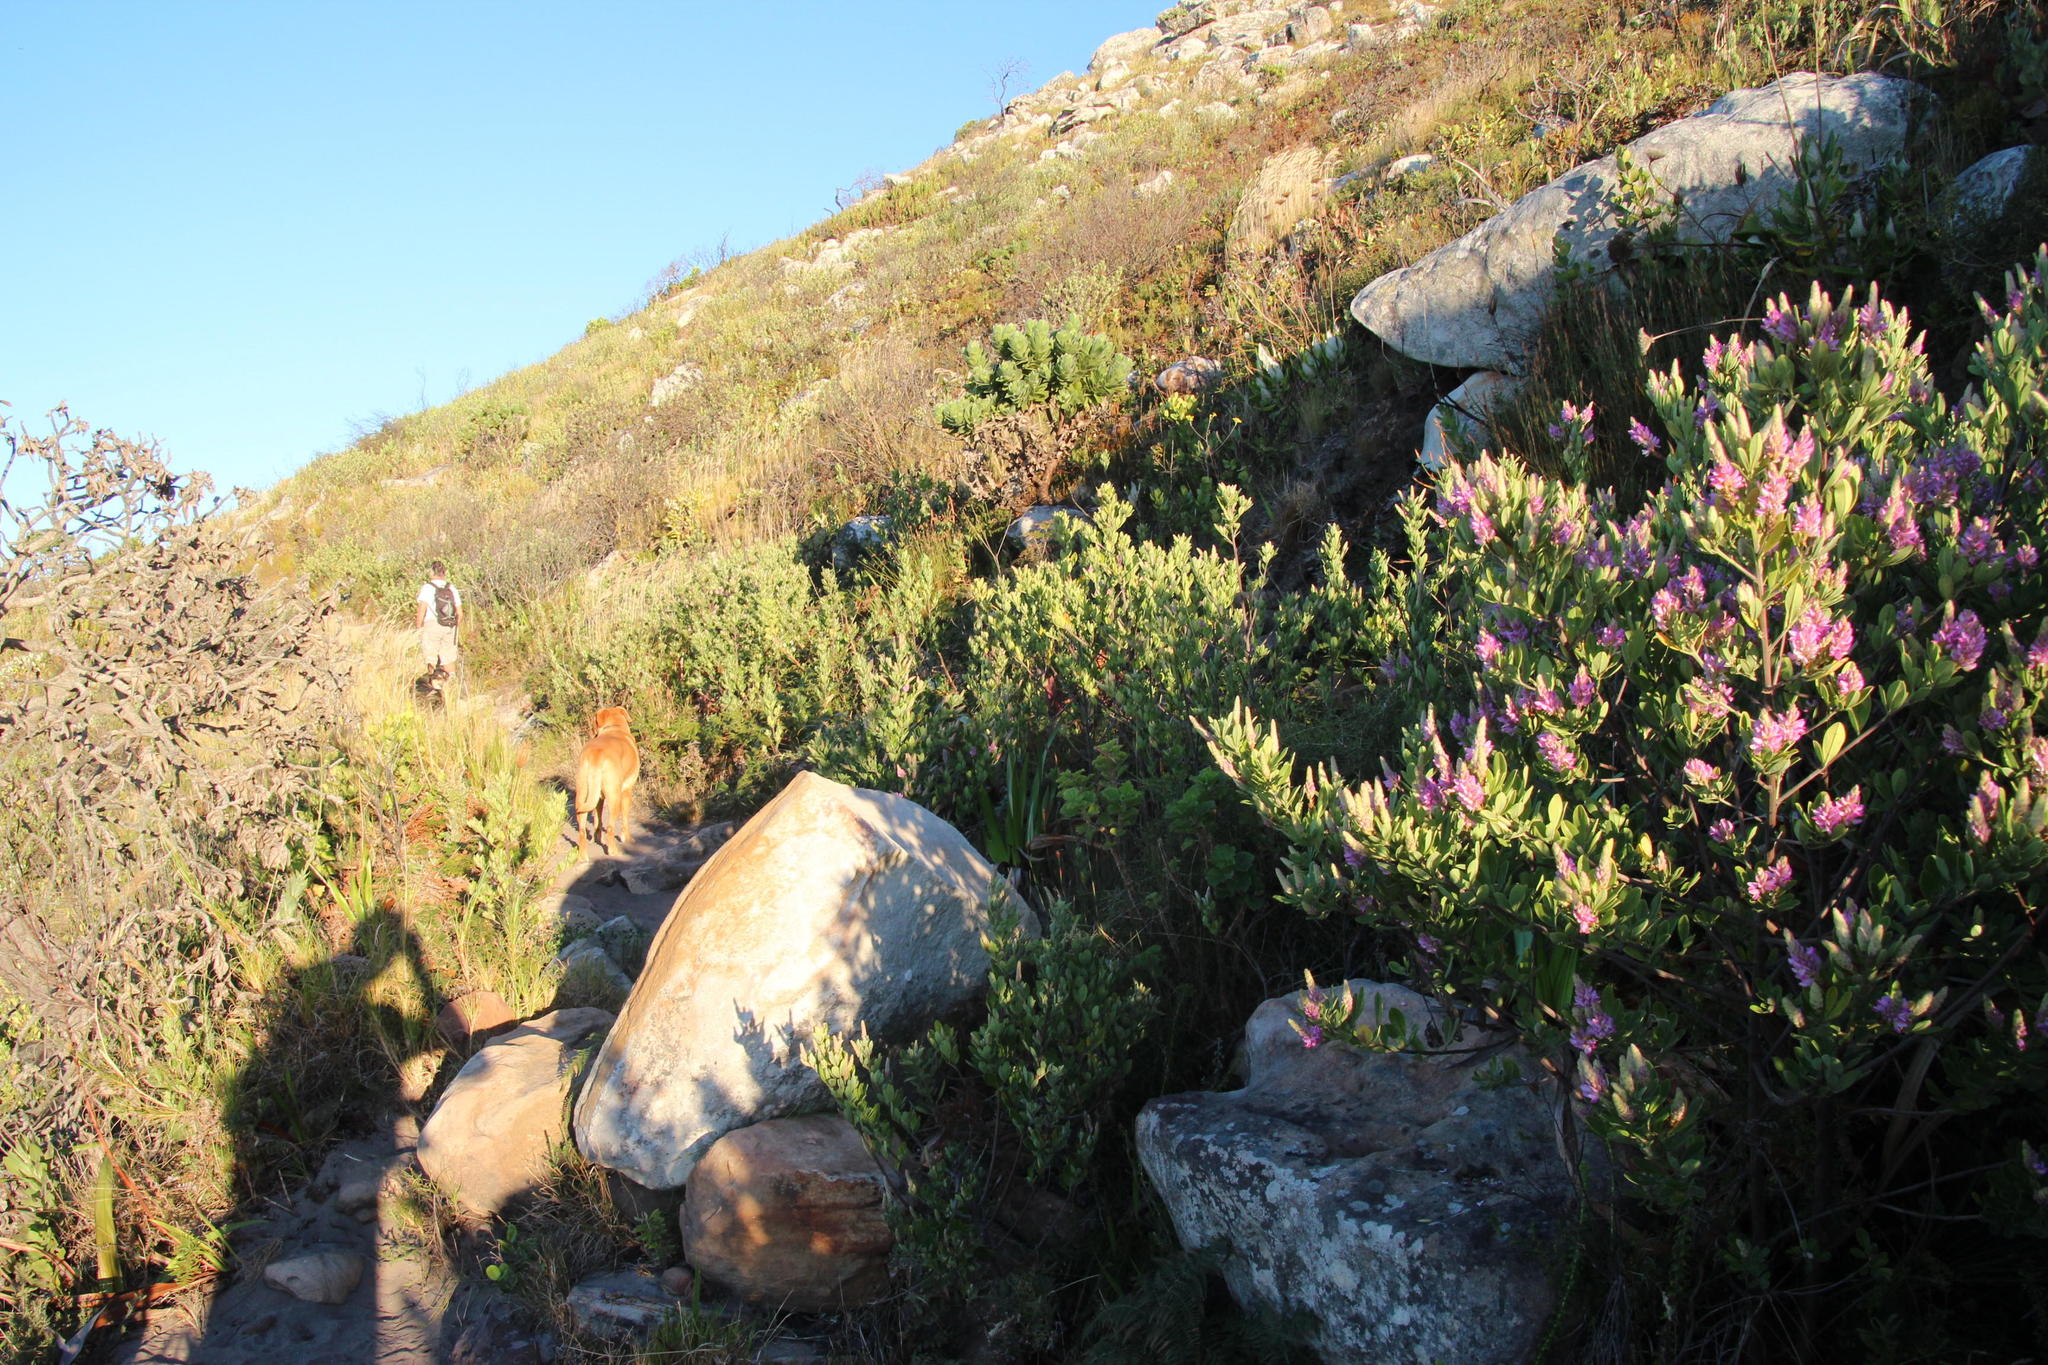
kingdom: Plantae
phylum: Tracheophyta
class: Magnoliopsida
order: Fabales
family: Fabaceae
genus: Indigofera
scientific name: Indigofera cytisoides
